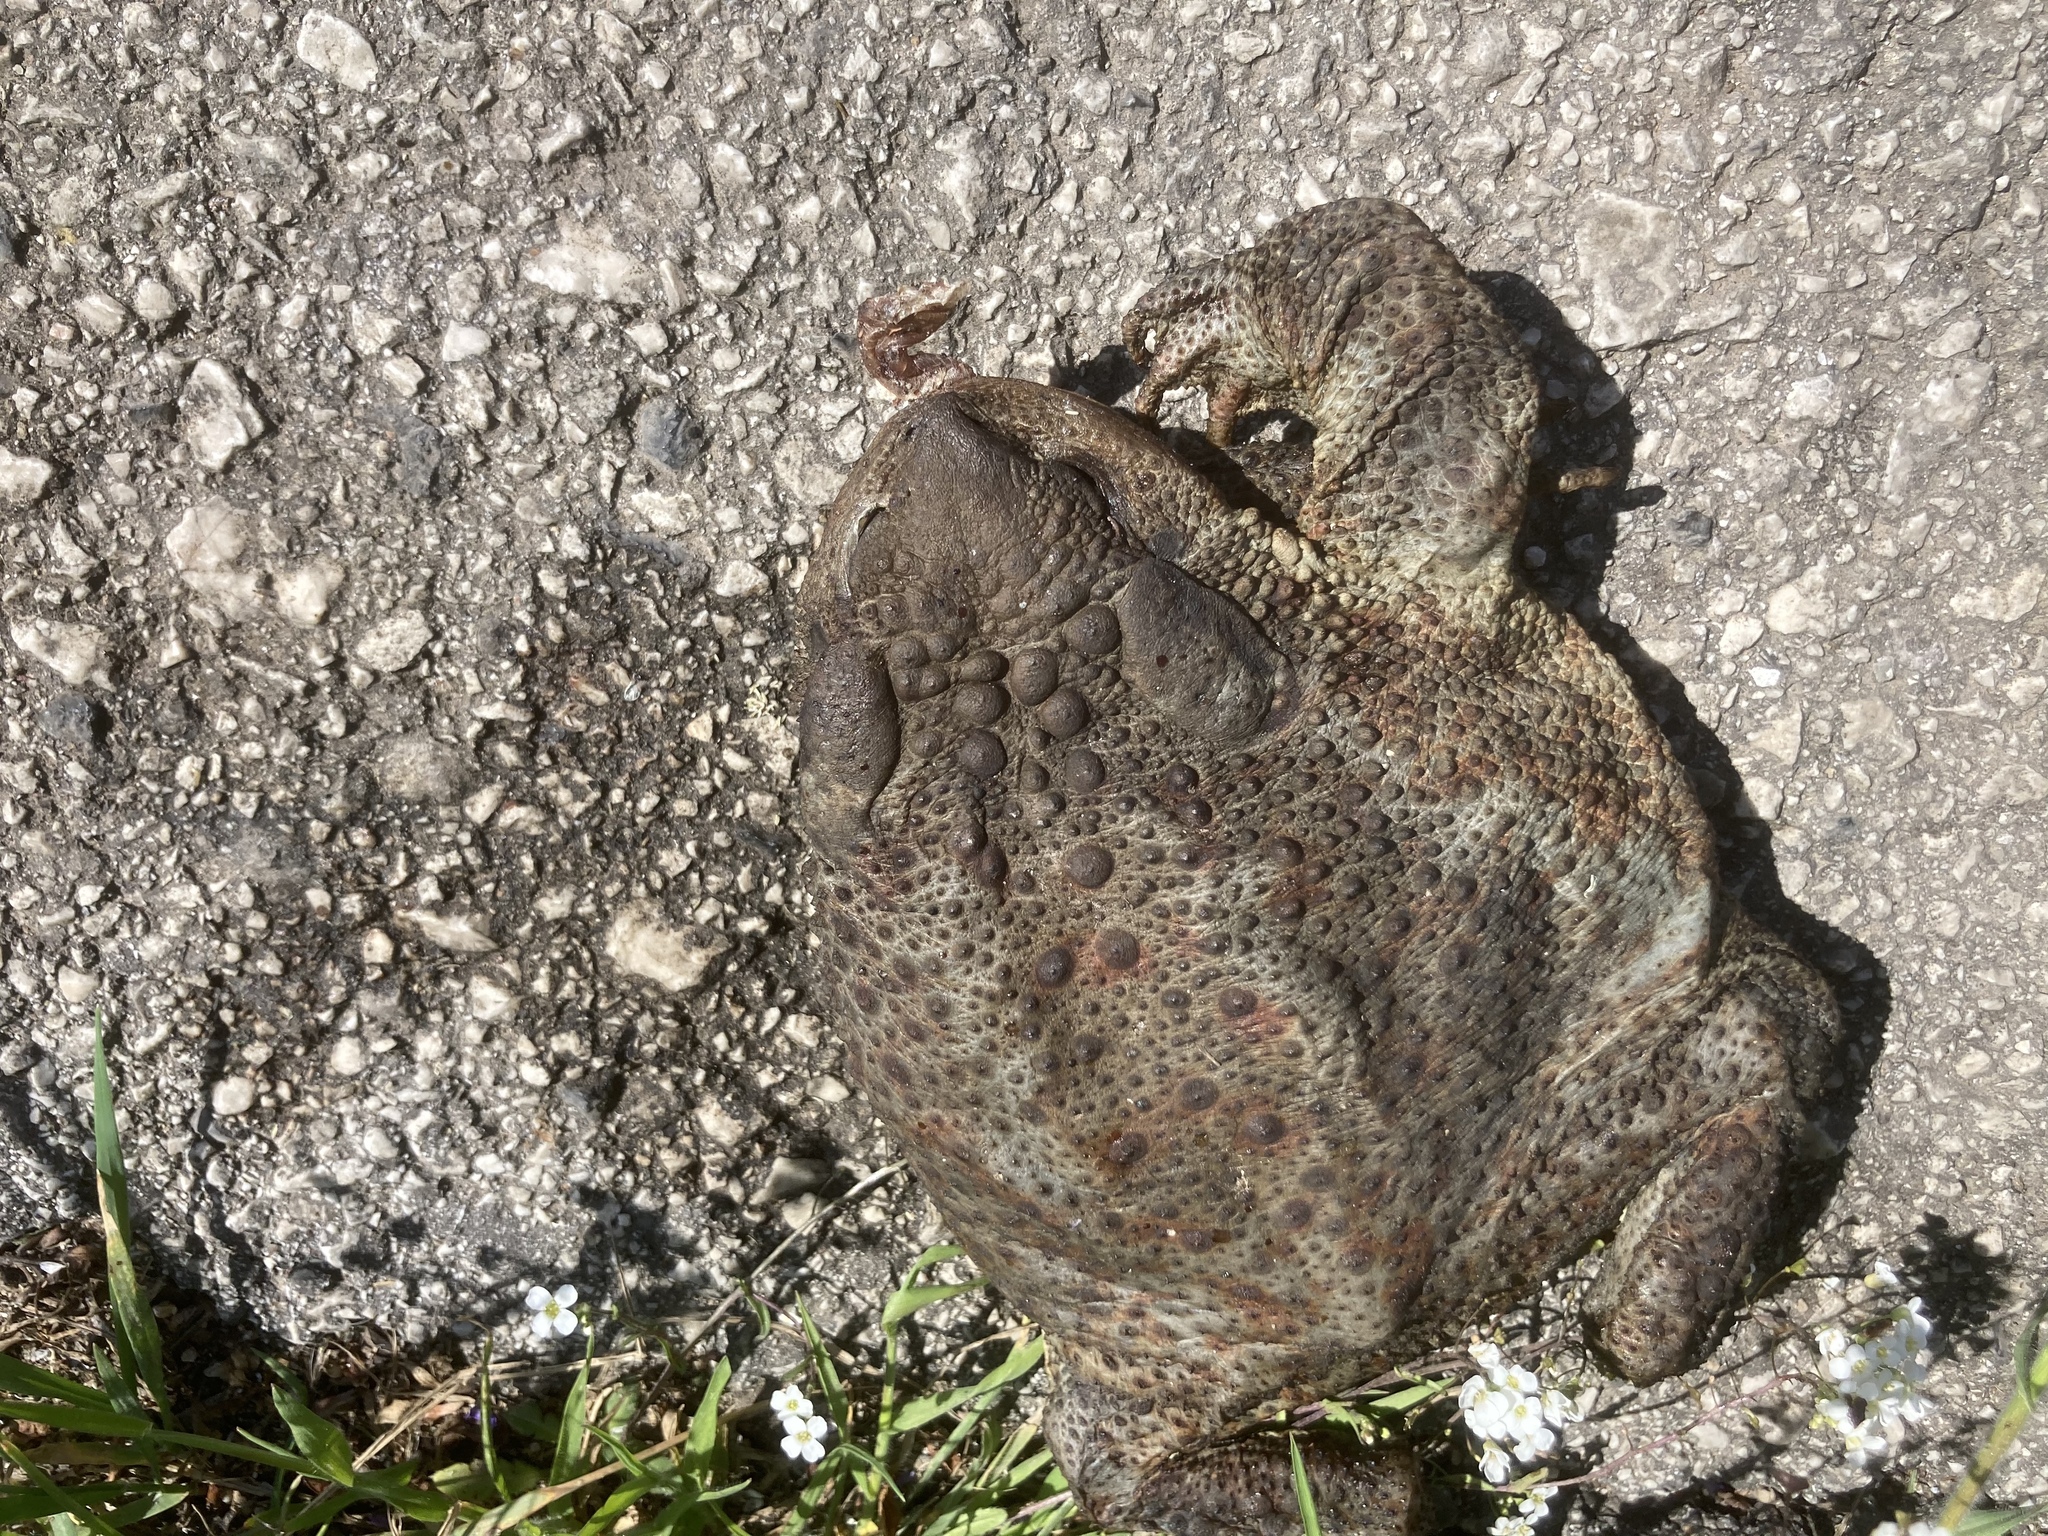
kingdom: Animalia
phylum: Chordata
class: Amphibia
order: Anura
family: Bufonidae
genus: Bufo
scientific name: Bufo bufo
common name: Common toad
